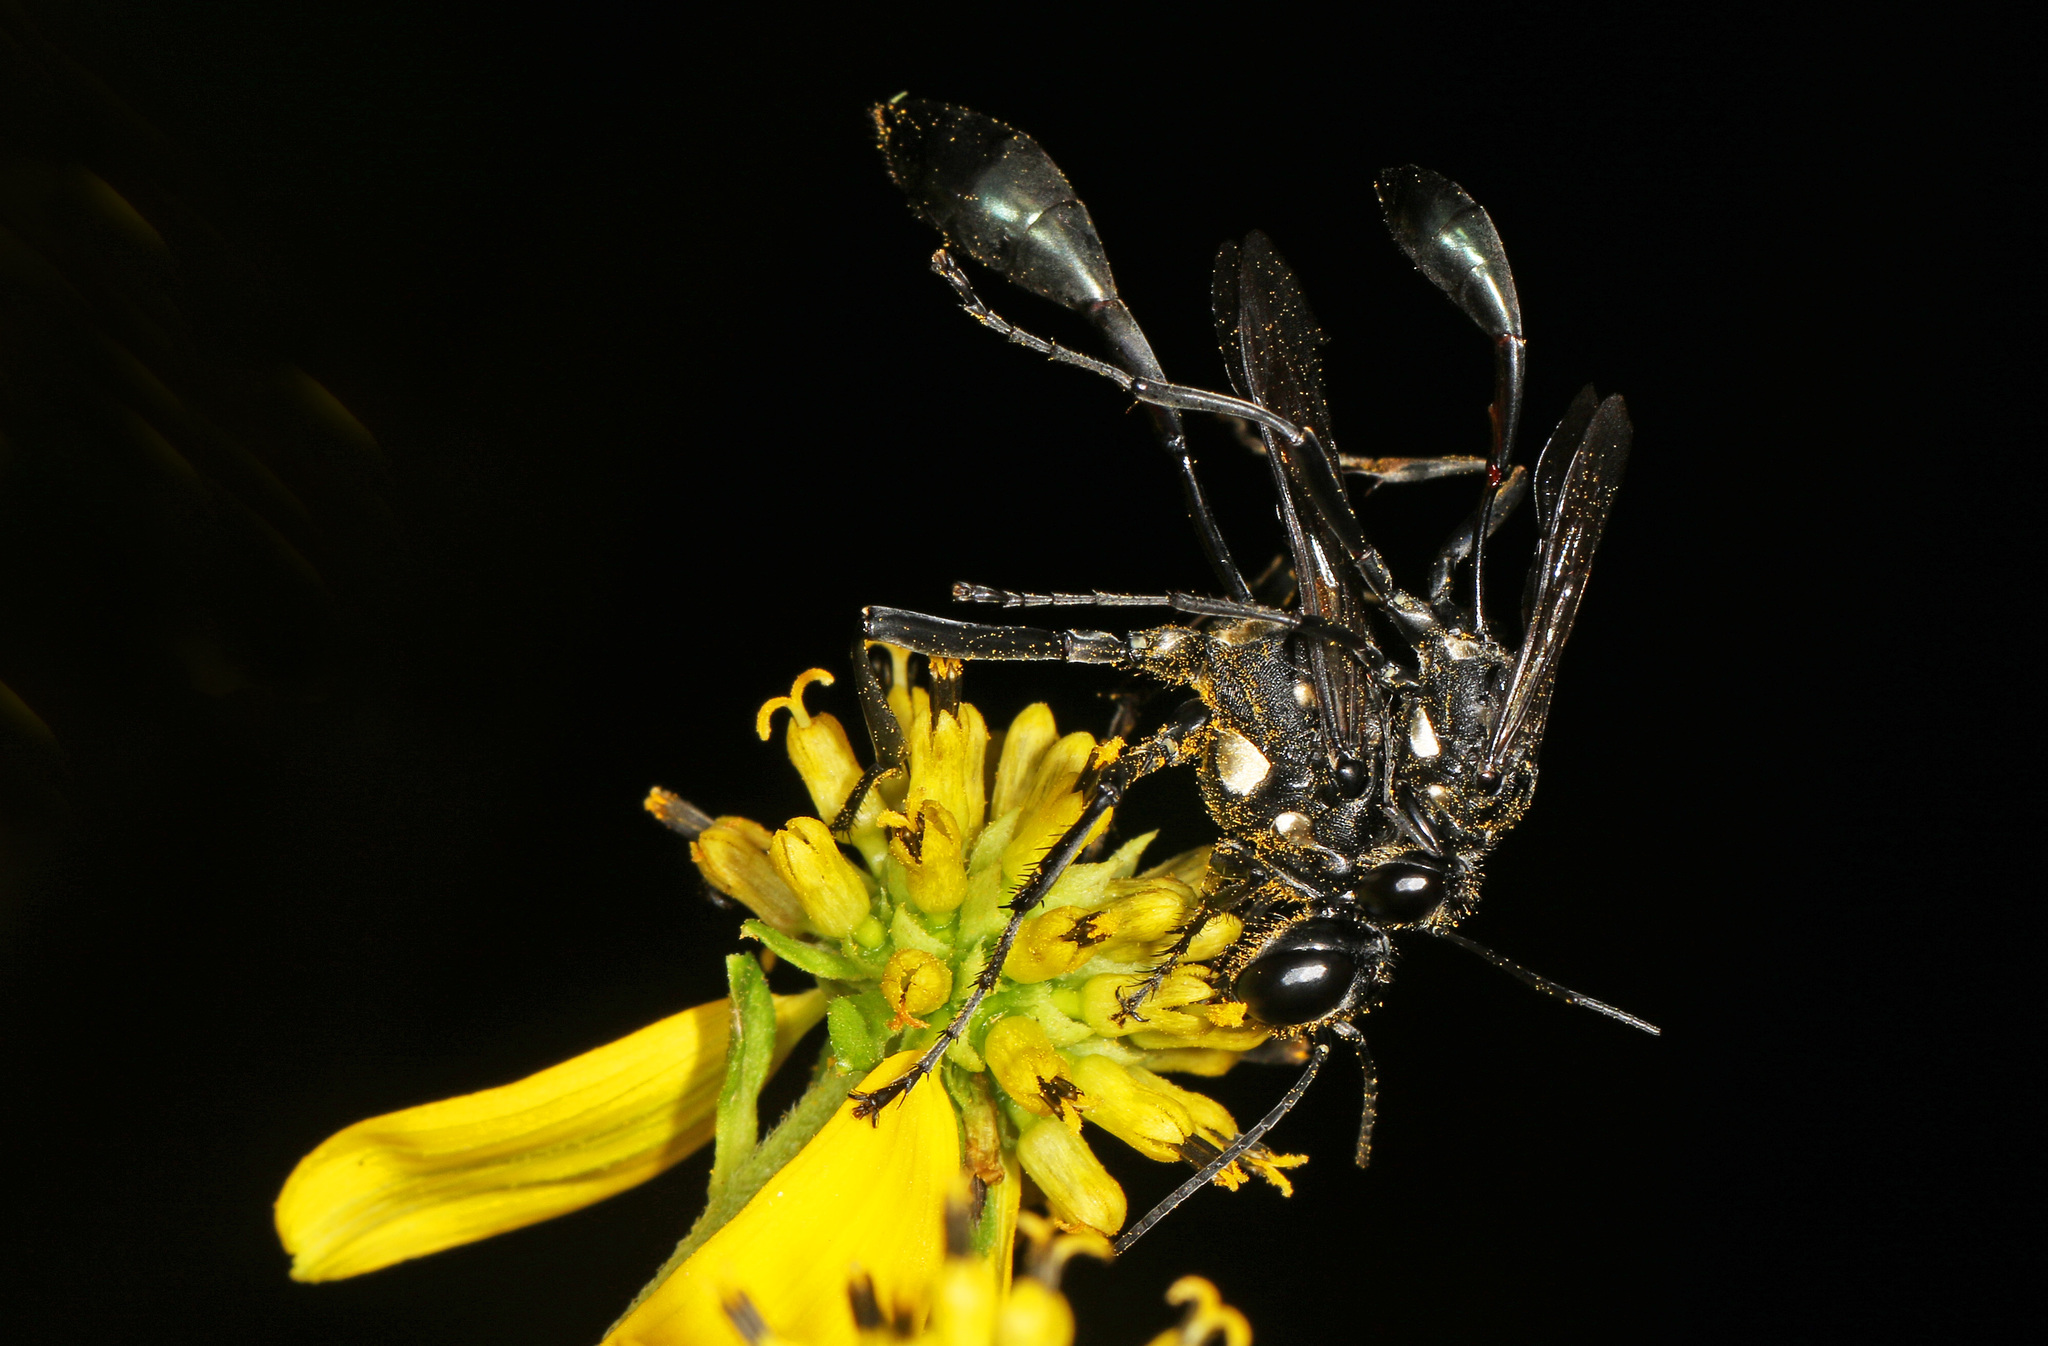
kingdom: Animalia
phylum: Arthropoda
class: Insecta
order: Hymenoptera
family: Sphecidae
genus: Eremnophila
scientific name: Eremnophila aureonotata
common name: Gold-marked thread-waisted wasp
